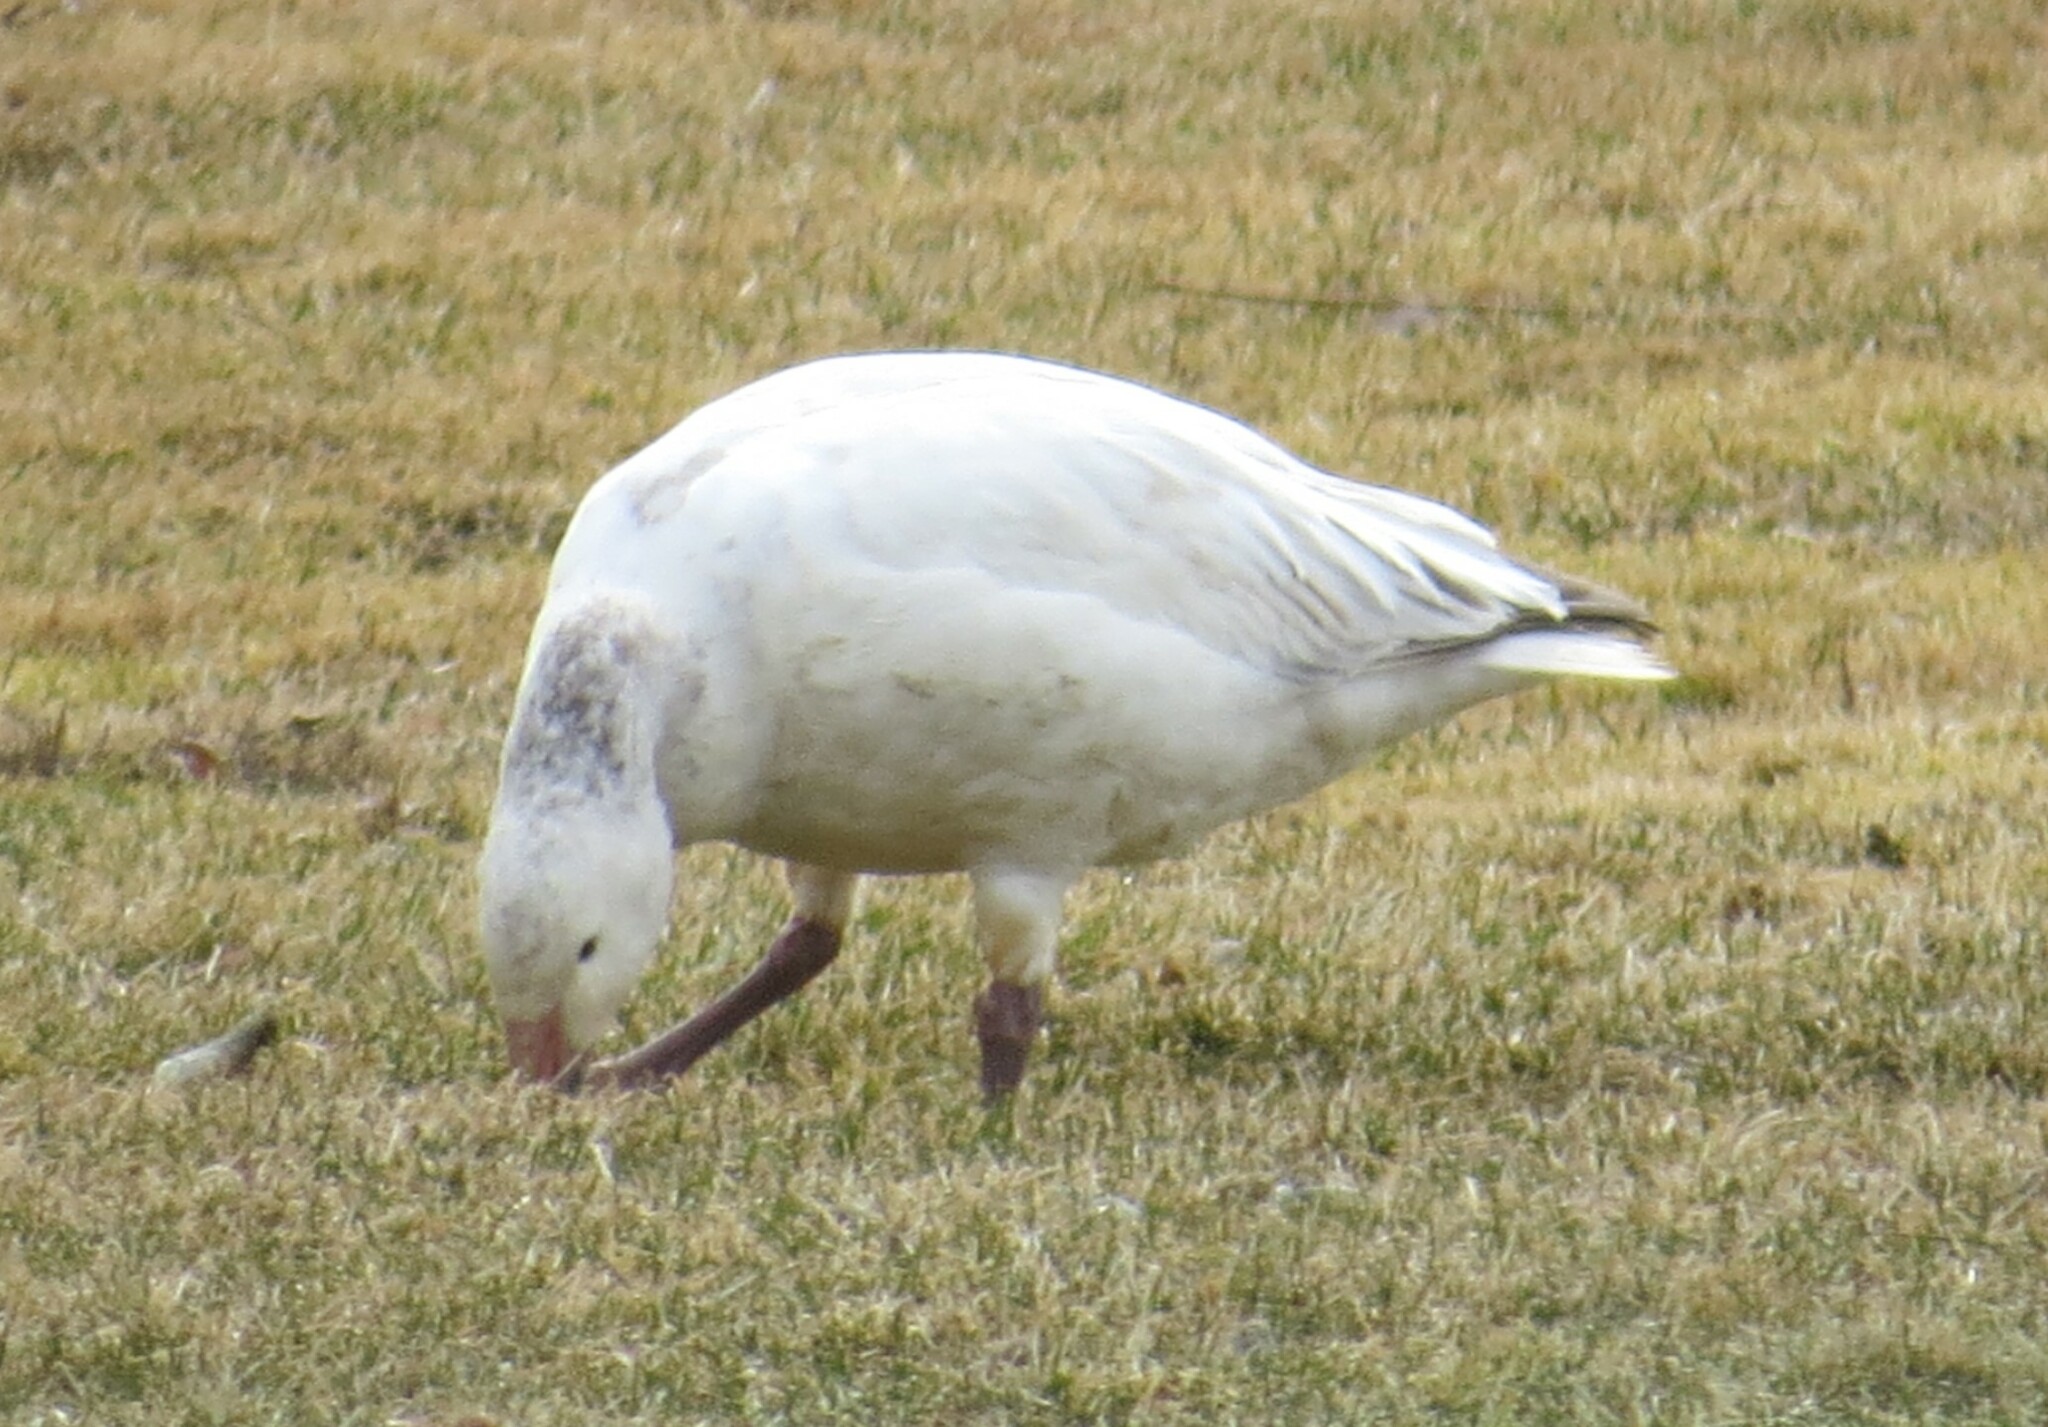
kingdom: Animalia
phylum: Chordata
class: Aves
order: Anseriformes
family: Anatidae
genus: Anser
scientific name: Anser caerulescens
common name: Snow goose
